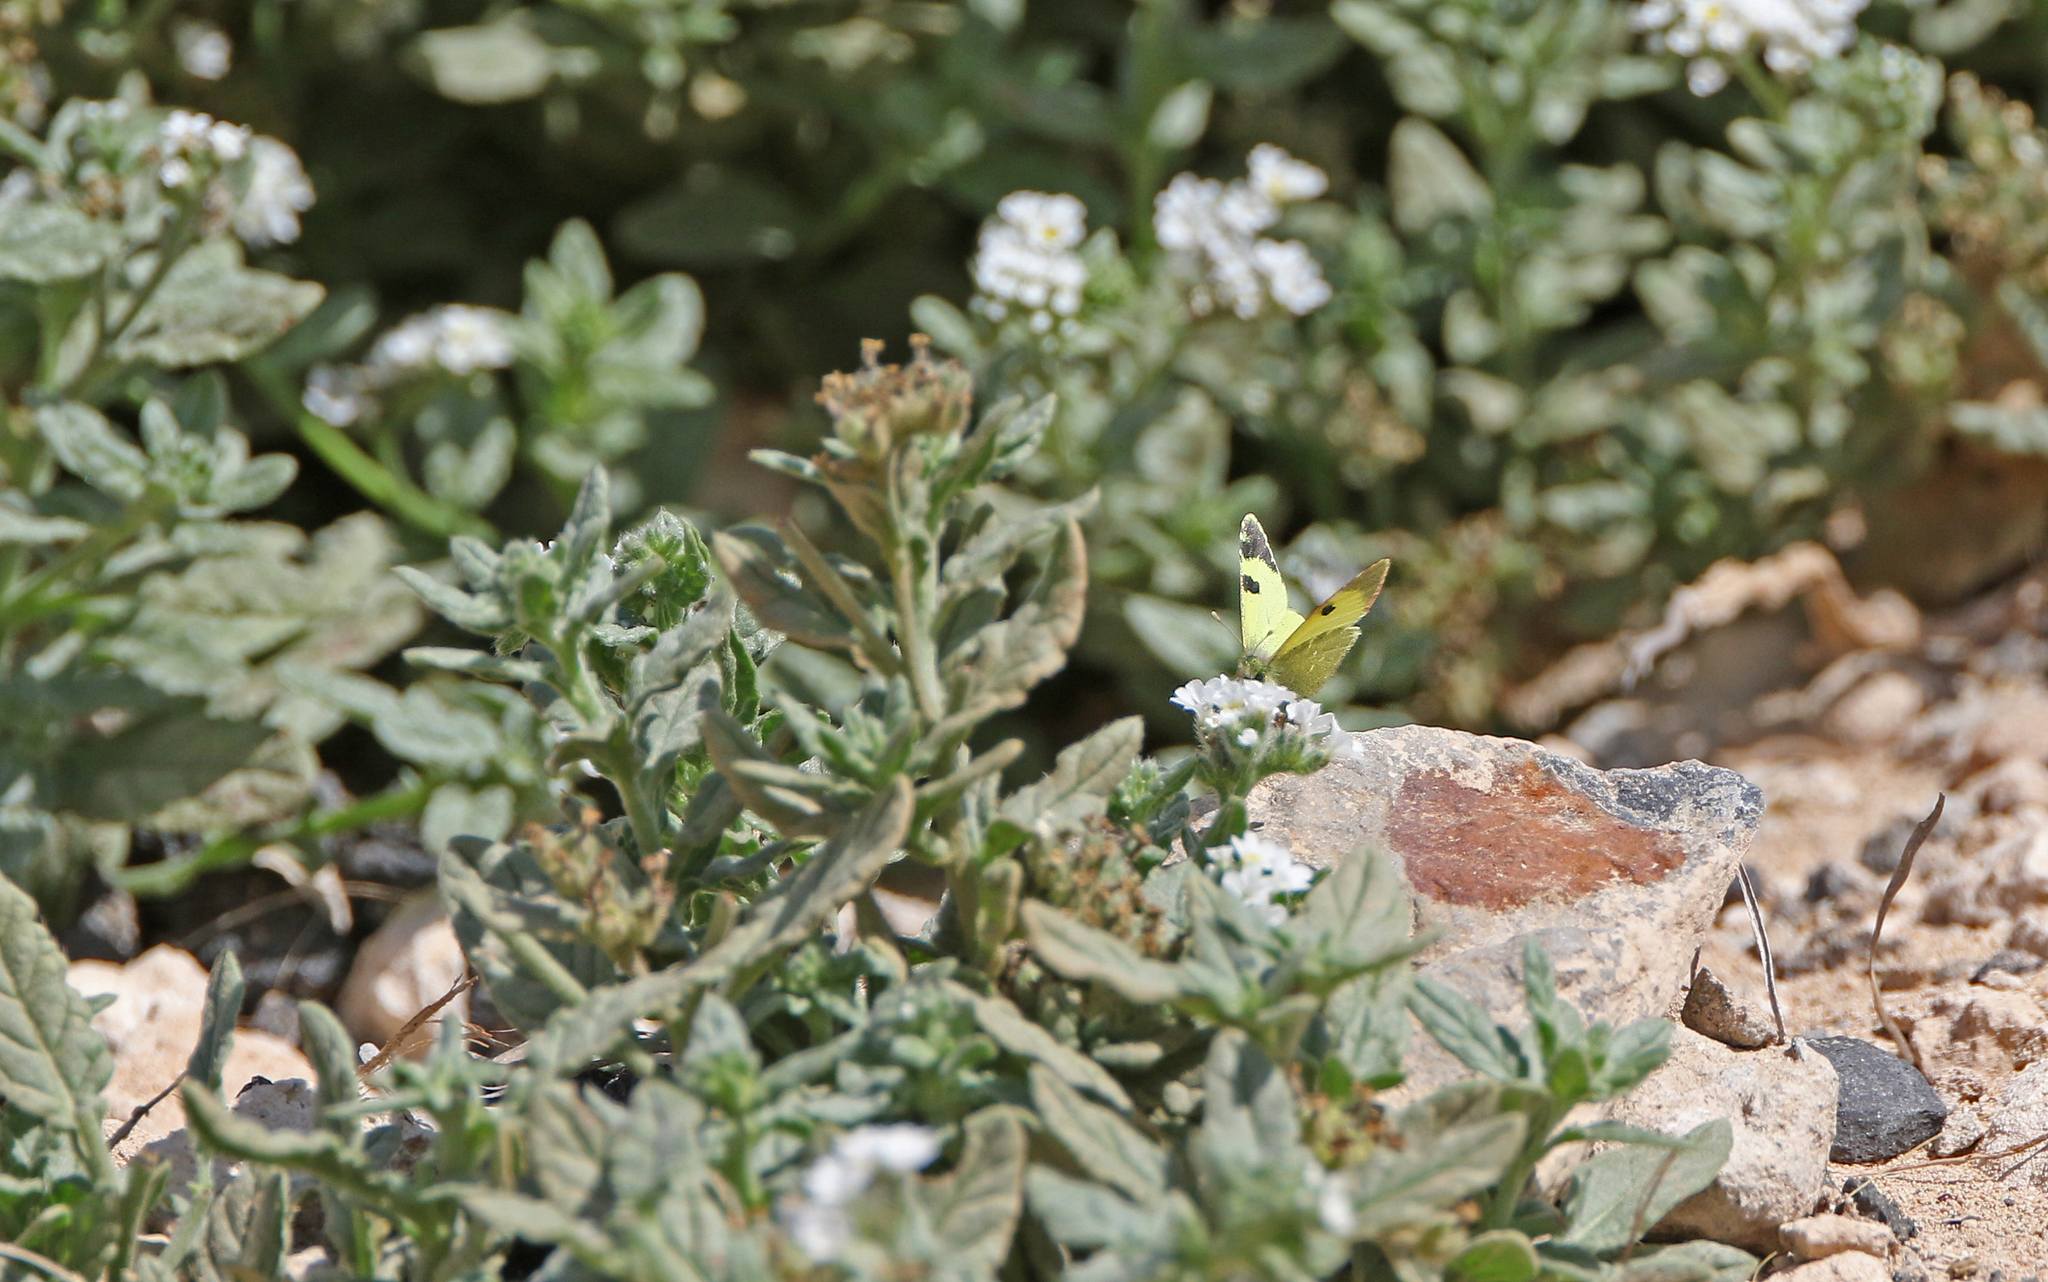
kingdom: Animalia
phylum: Arthropoda
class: Insecta
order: Lepidoptera
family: Pieridae
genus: Elphinstonia
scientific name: Elphinstonia charlonia
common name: Greenish black-tip
